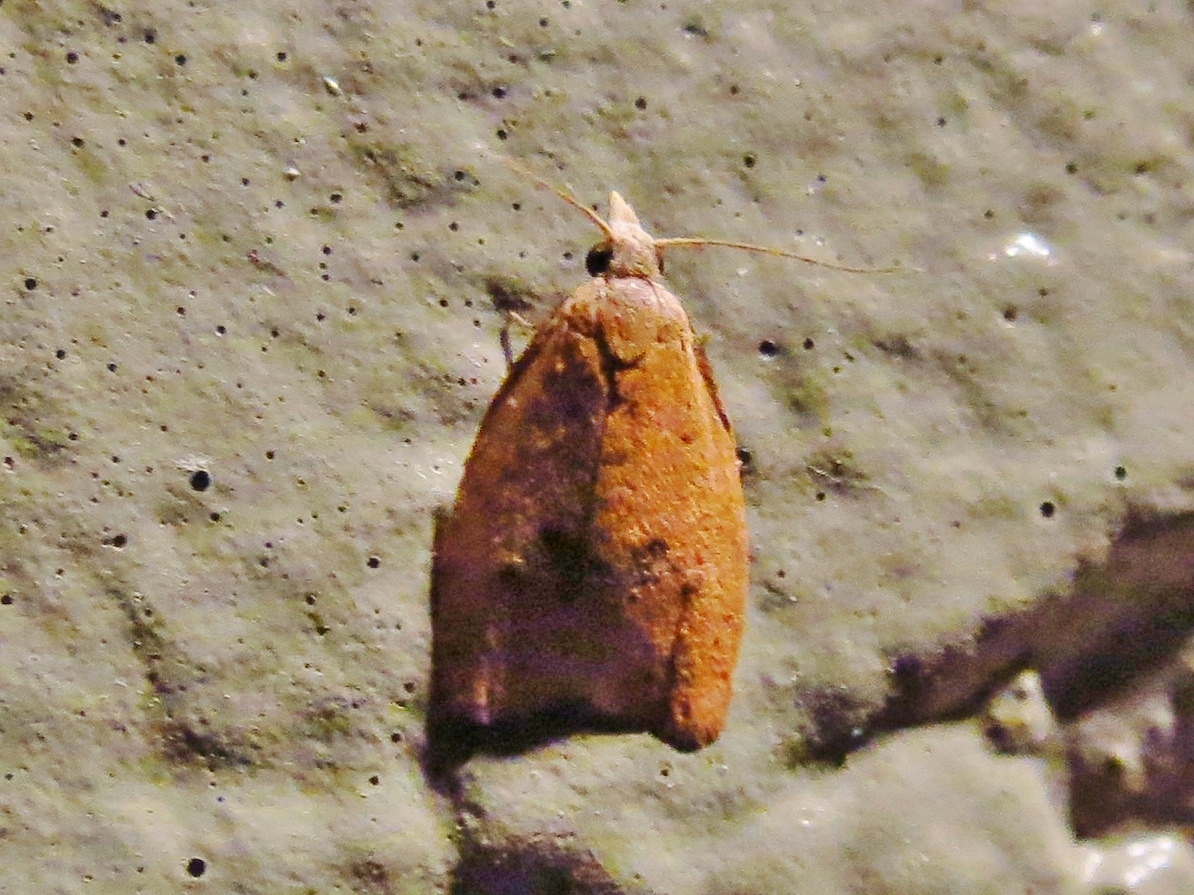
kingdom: Animalia
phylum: Arthropoda
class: Insecta
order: Lepidoptera
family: Tortricidae
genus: Sparganothoides
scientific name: Sparganothoides lentiginosana
